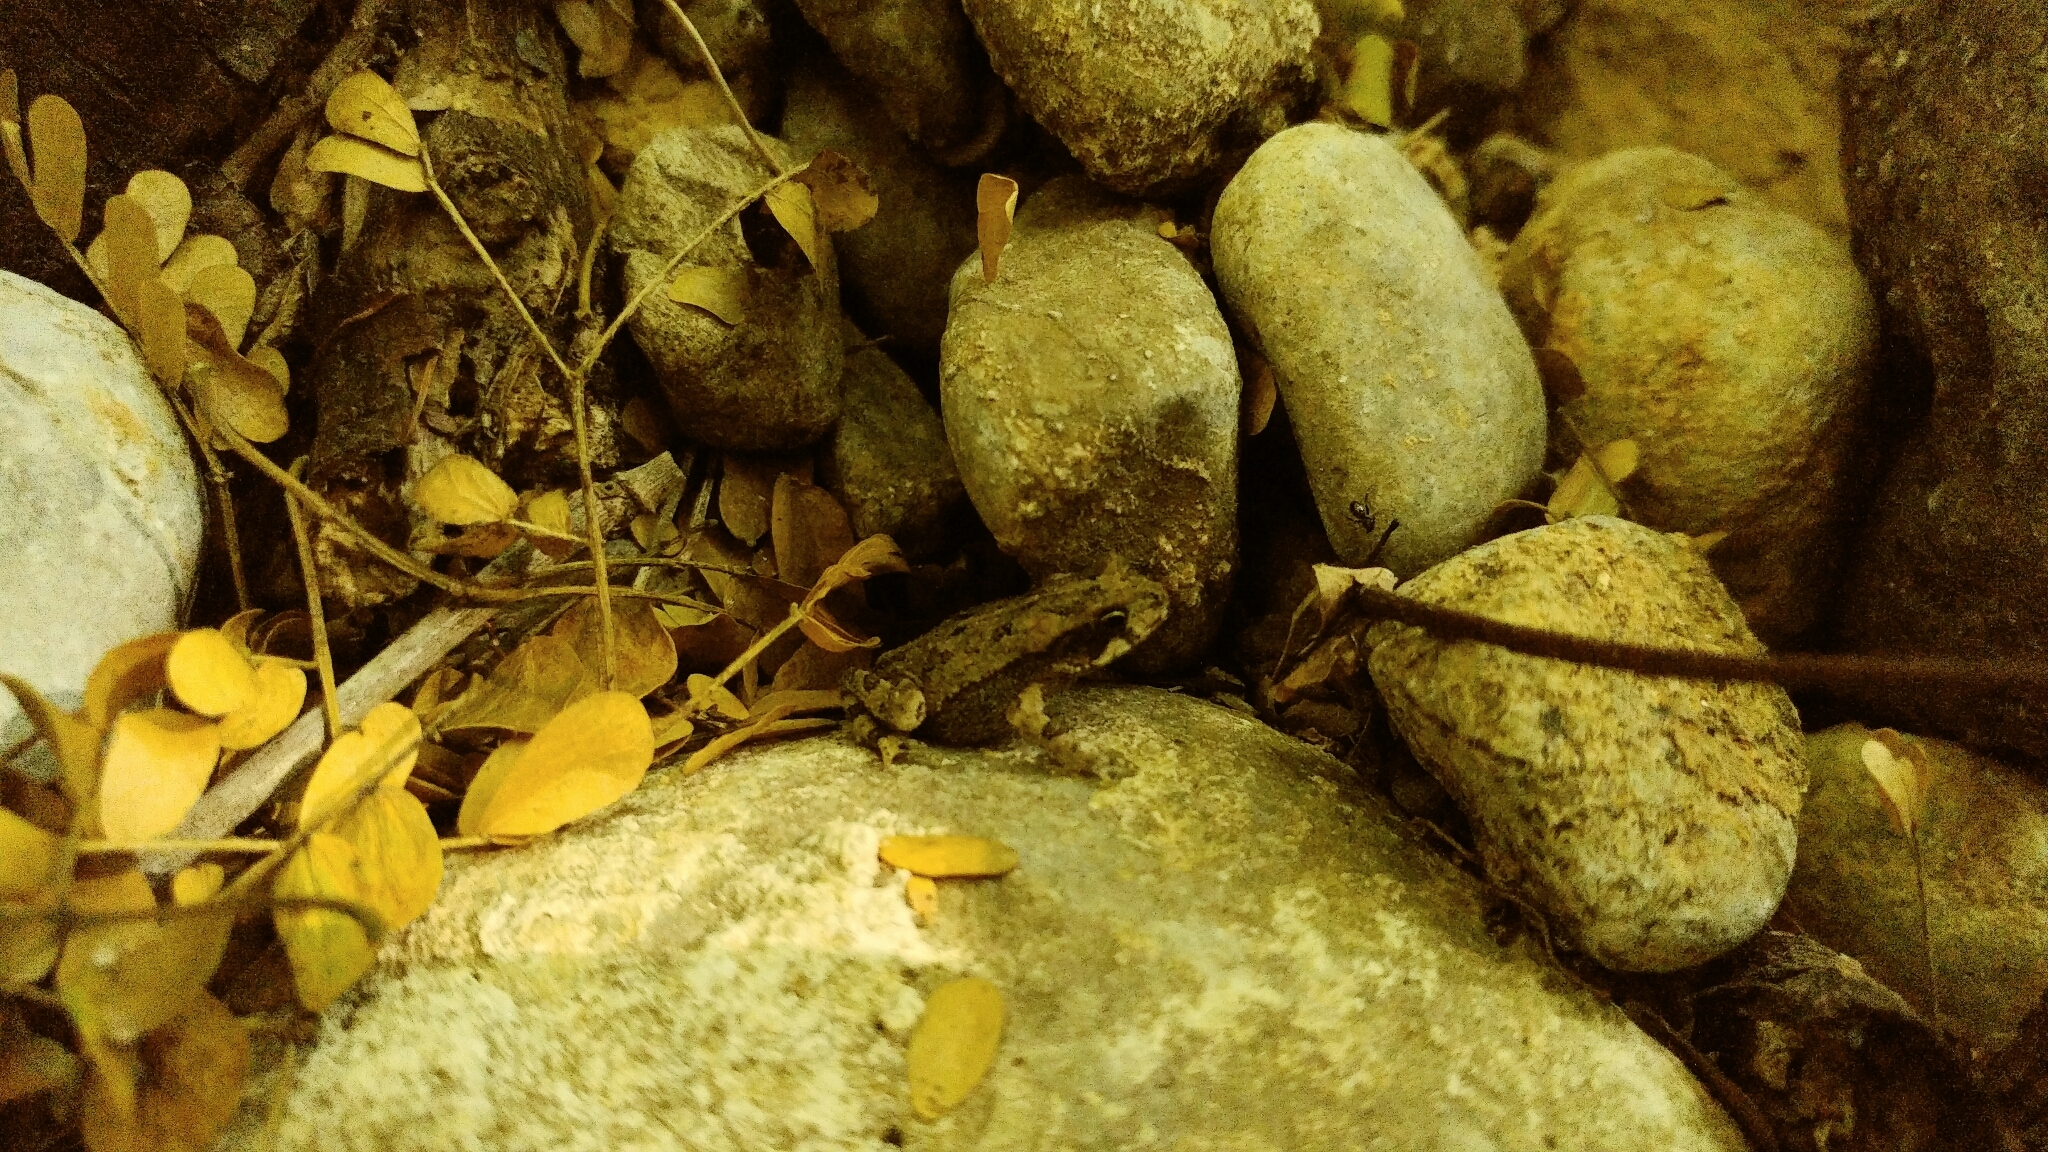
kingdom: Animalia
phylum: Chordata
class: Amphibia
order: Anura
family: Bufonidae
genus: Incilius
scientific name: Incilius nebulifer
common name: Gulf coast toad
